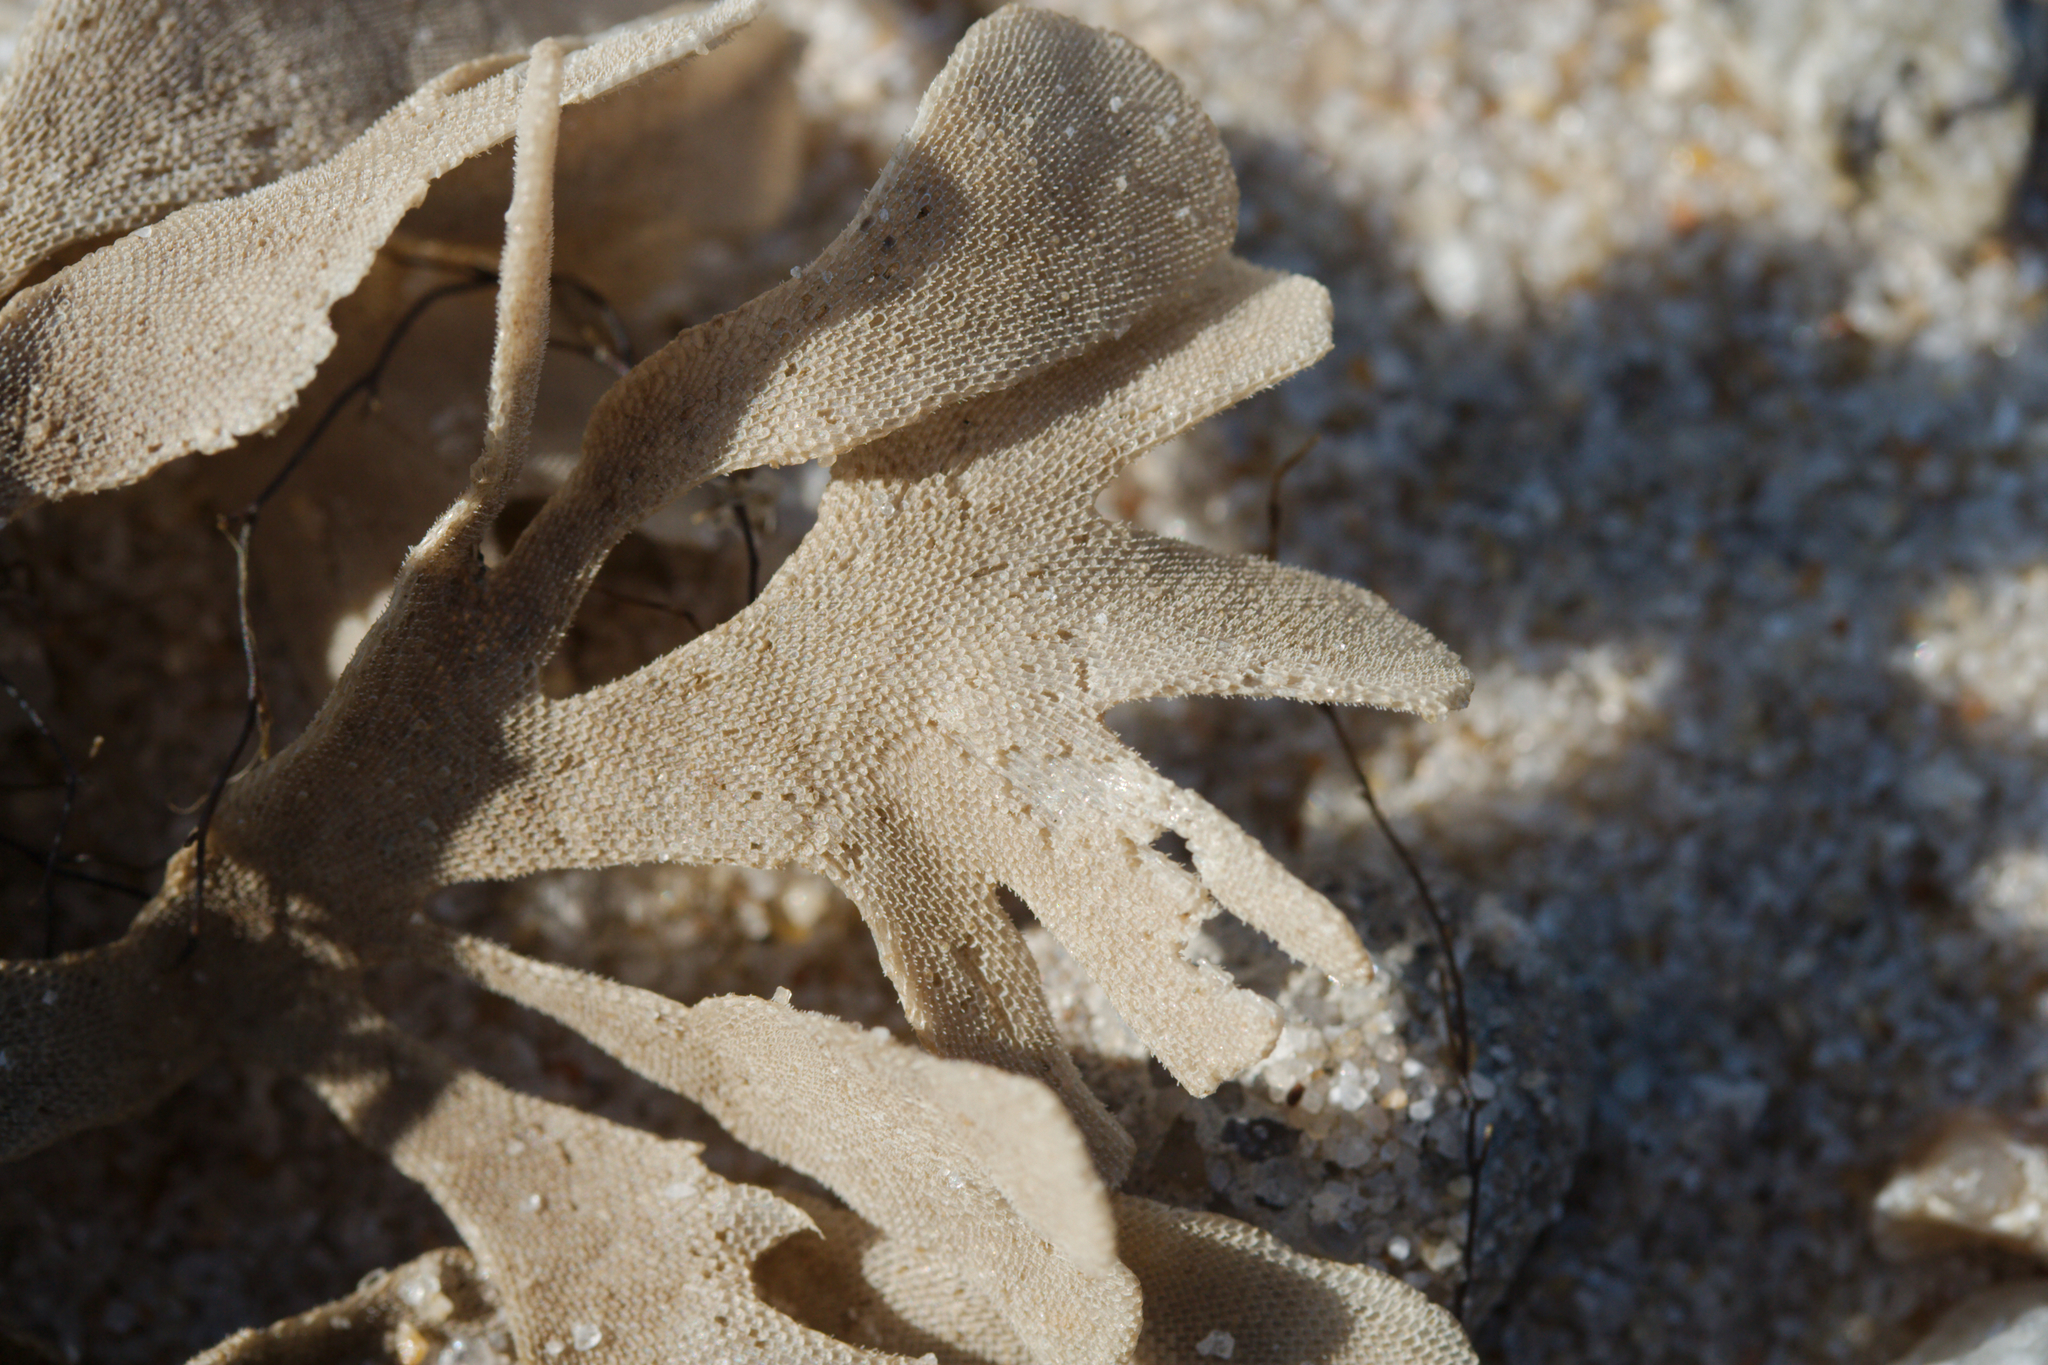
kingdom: Animalia
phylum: Bryozoa
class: Gymnolaemata
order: Cheilostomatida
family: Flustridae
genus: Flustra
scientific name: Flustra foliacea
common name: Hornwrack
